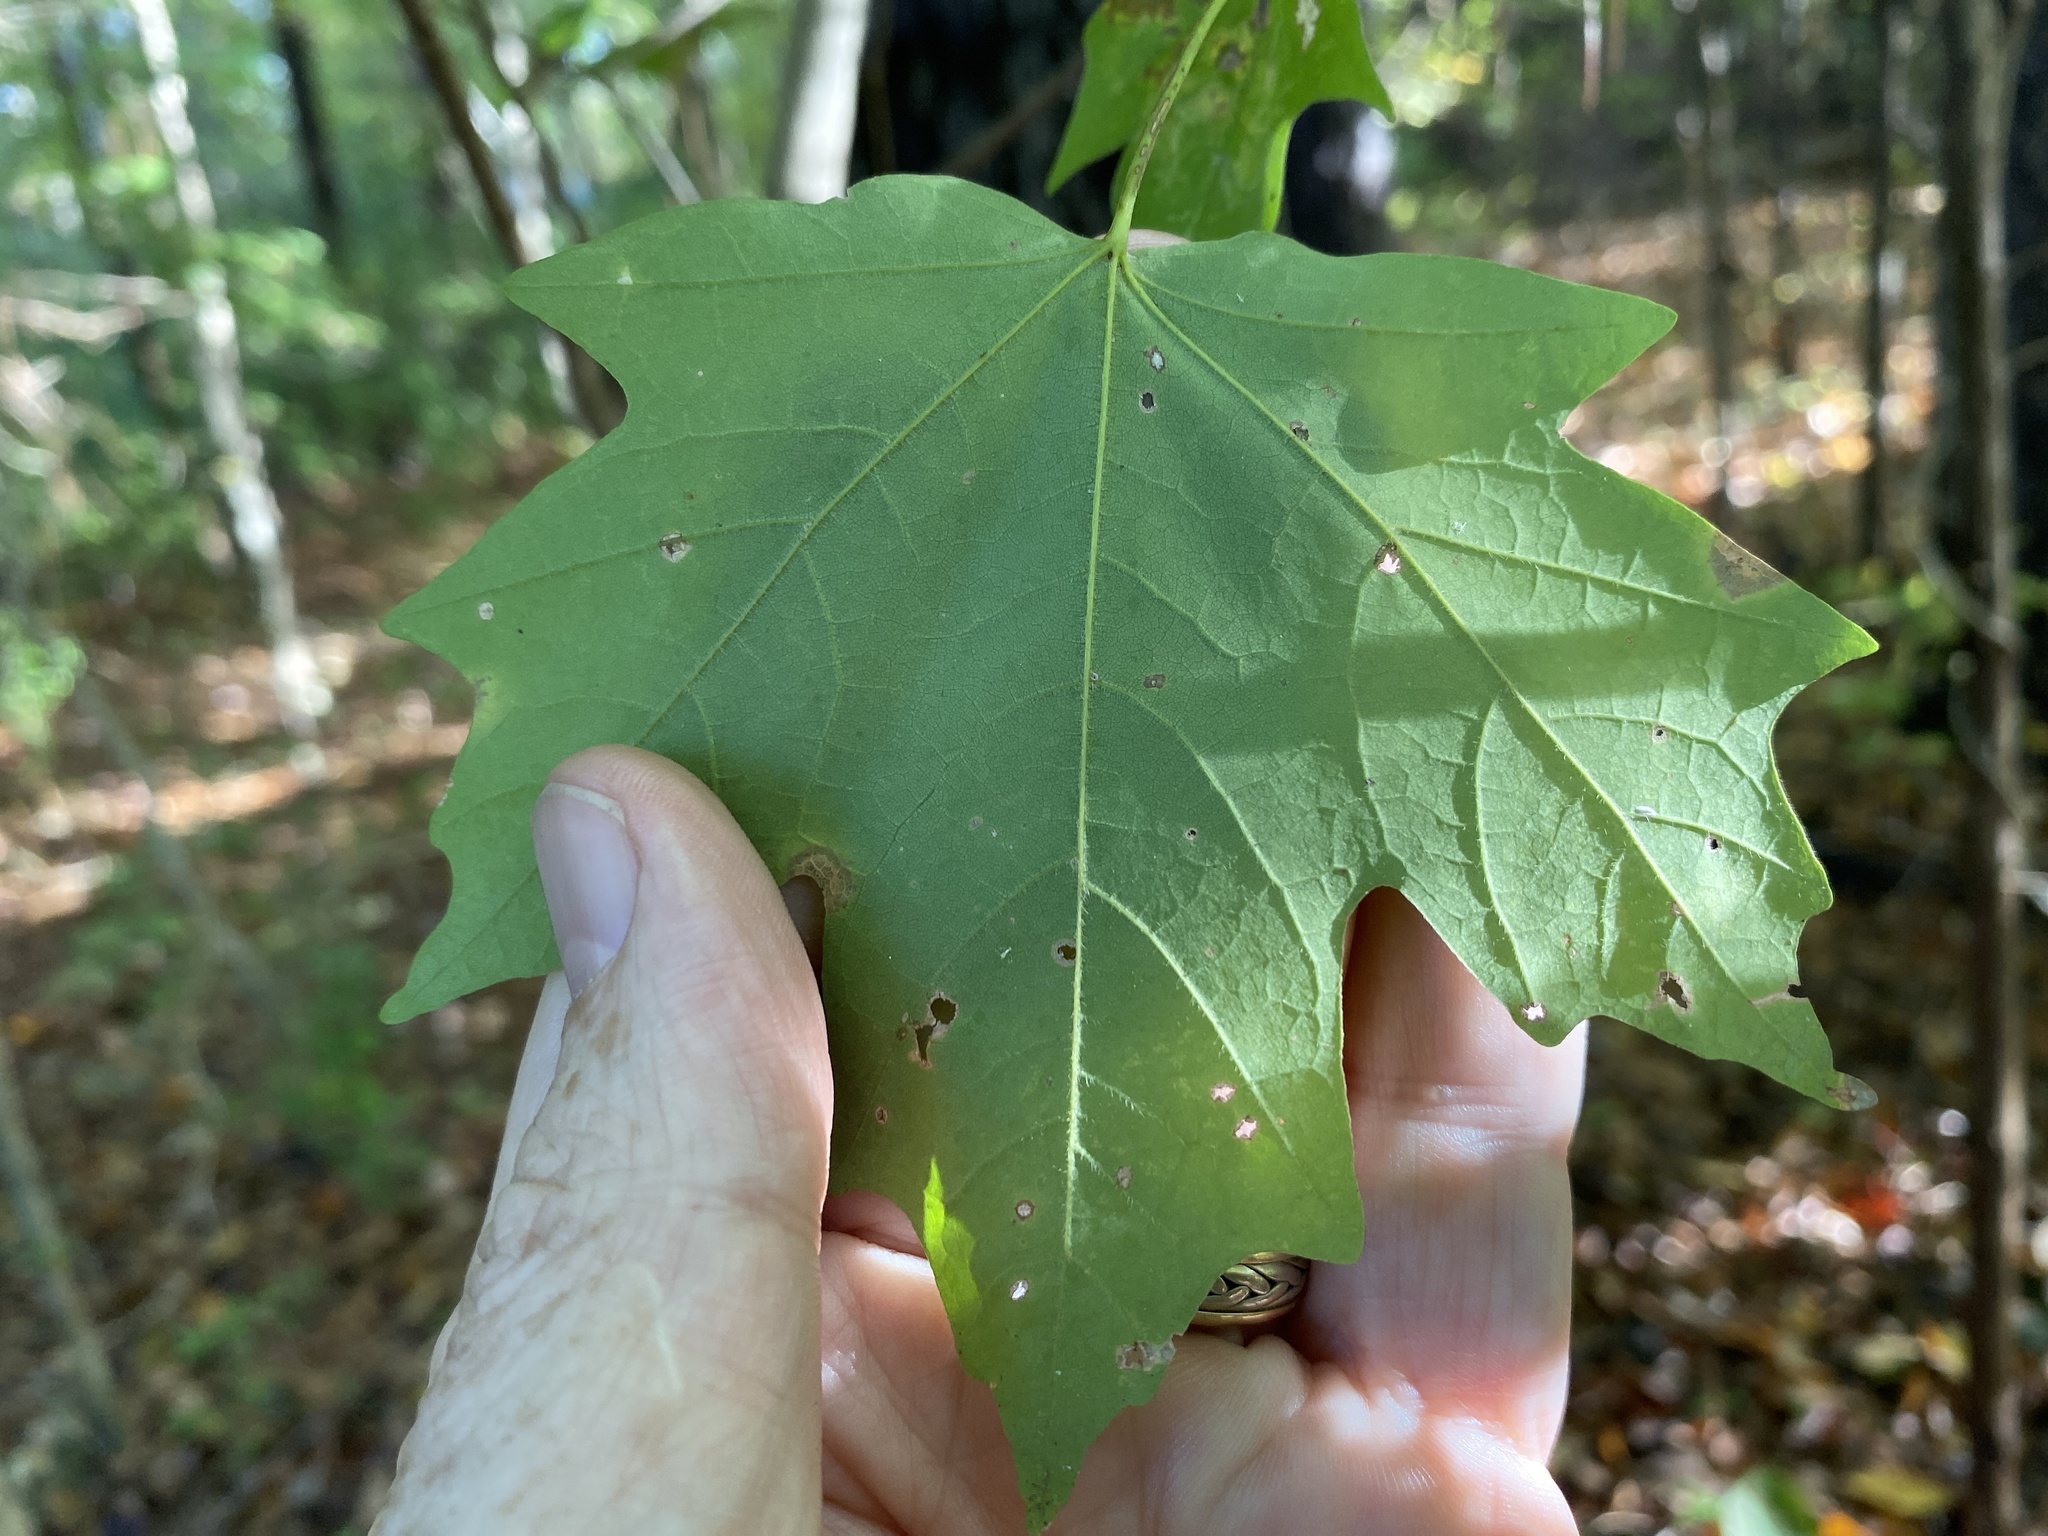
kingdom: Plantae
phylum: Tracheophyta
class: Magnoliopsida
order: Sapindales
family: Sapindaceae
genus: Acer
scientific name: Acer floridanum
